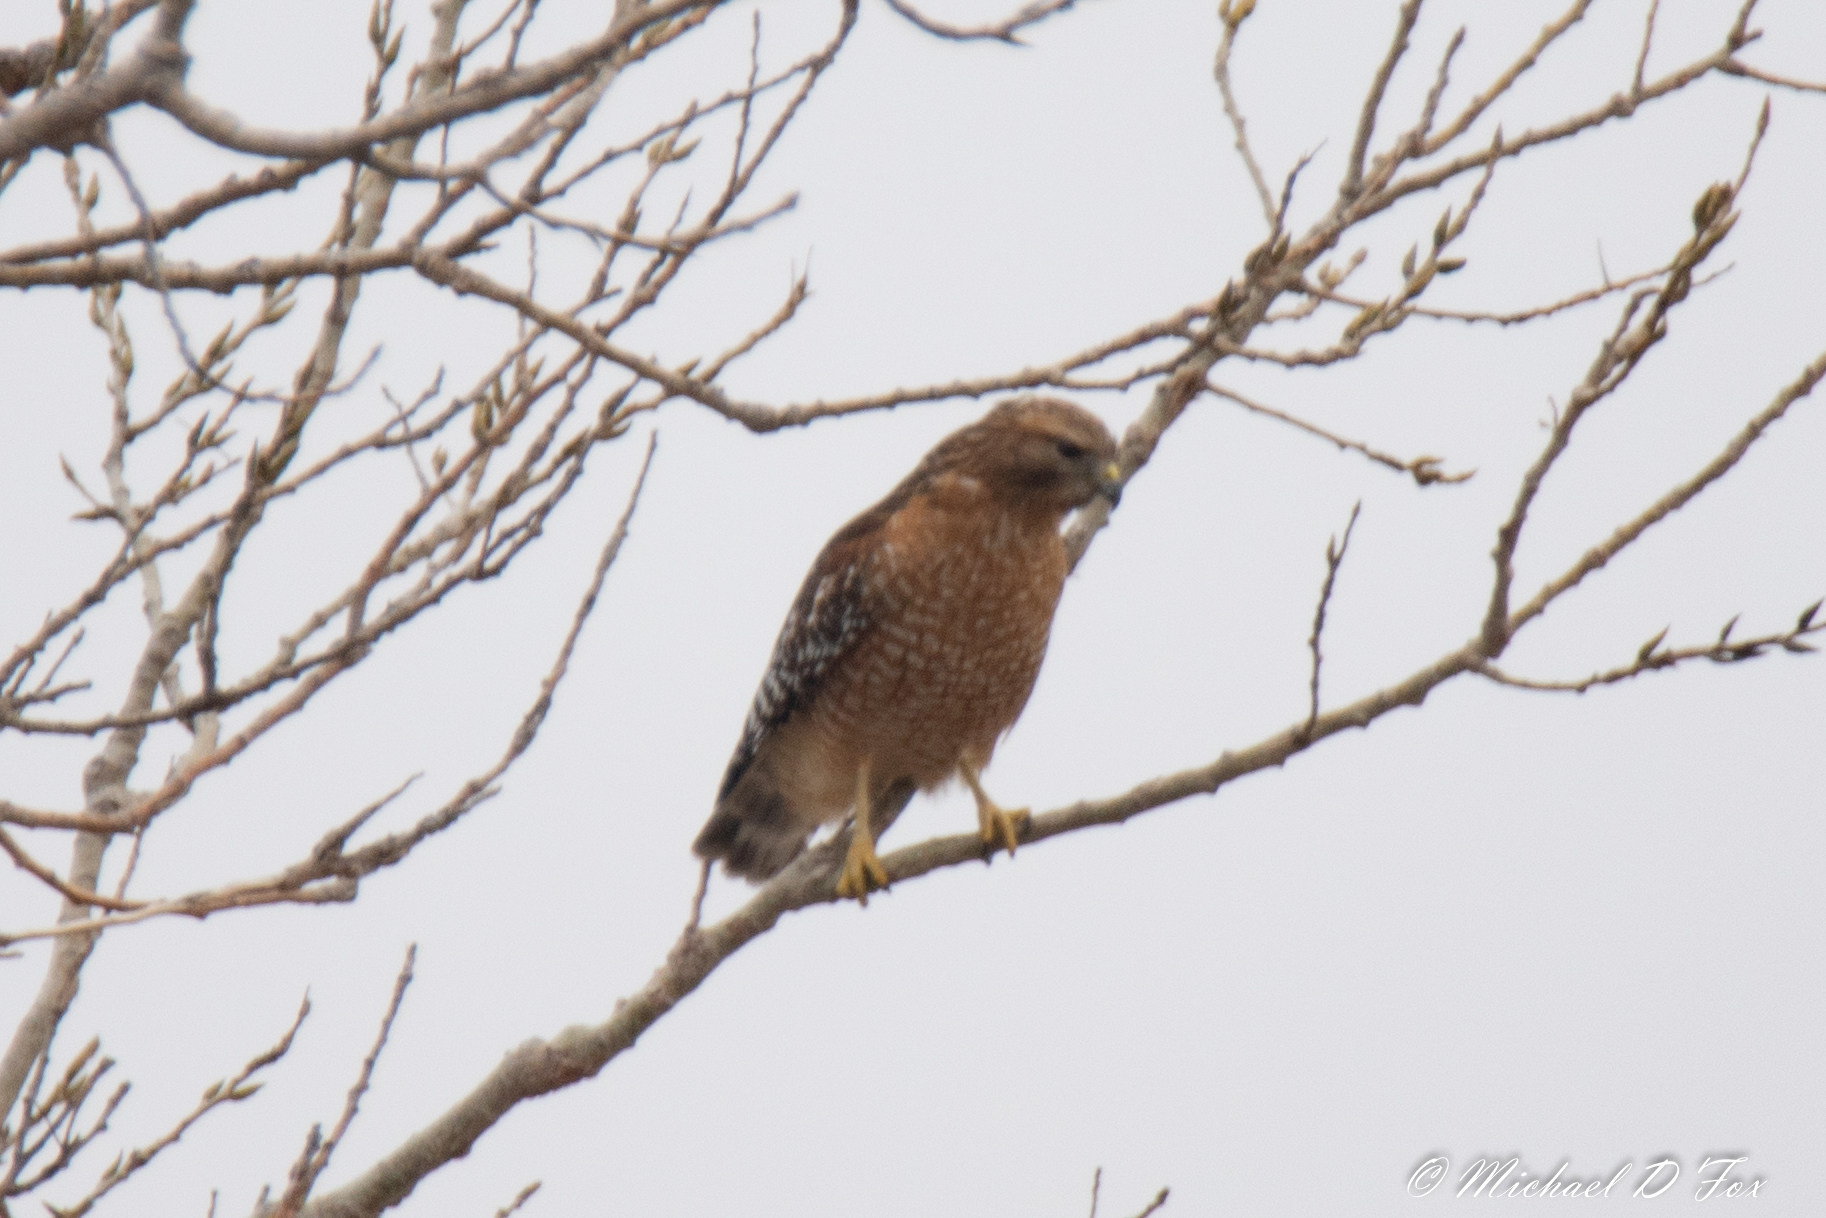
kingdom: Animalia
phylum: Chordata
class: Aves
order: Accipitriformes
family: Accipitridae
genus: Buteo
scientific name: Buteo lineatus
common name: Red-shouldered hawk
